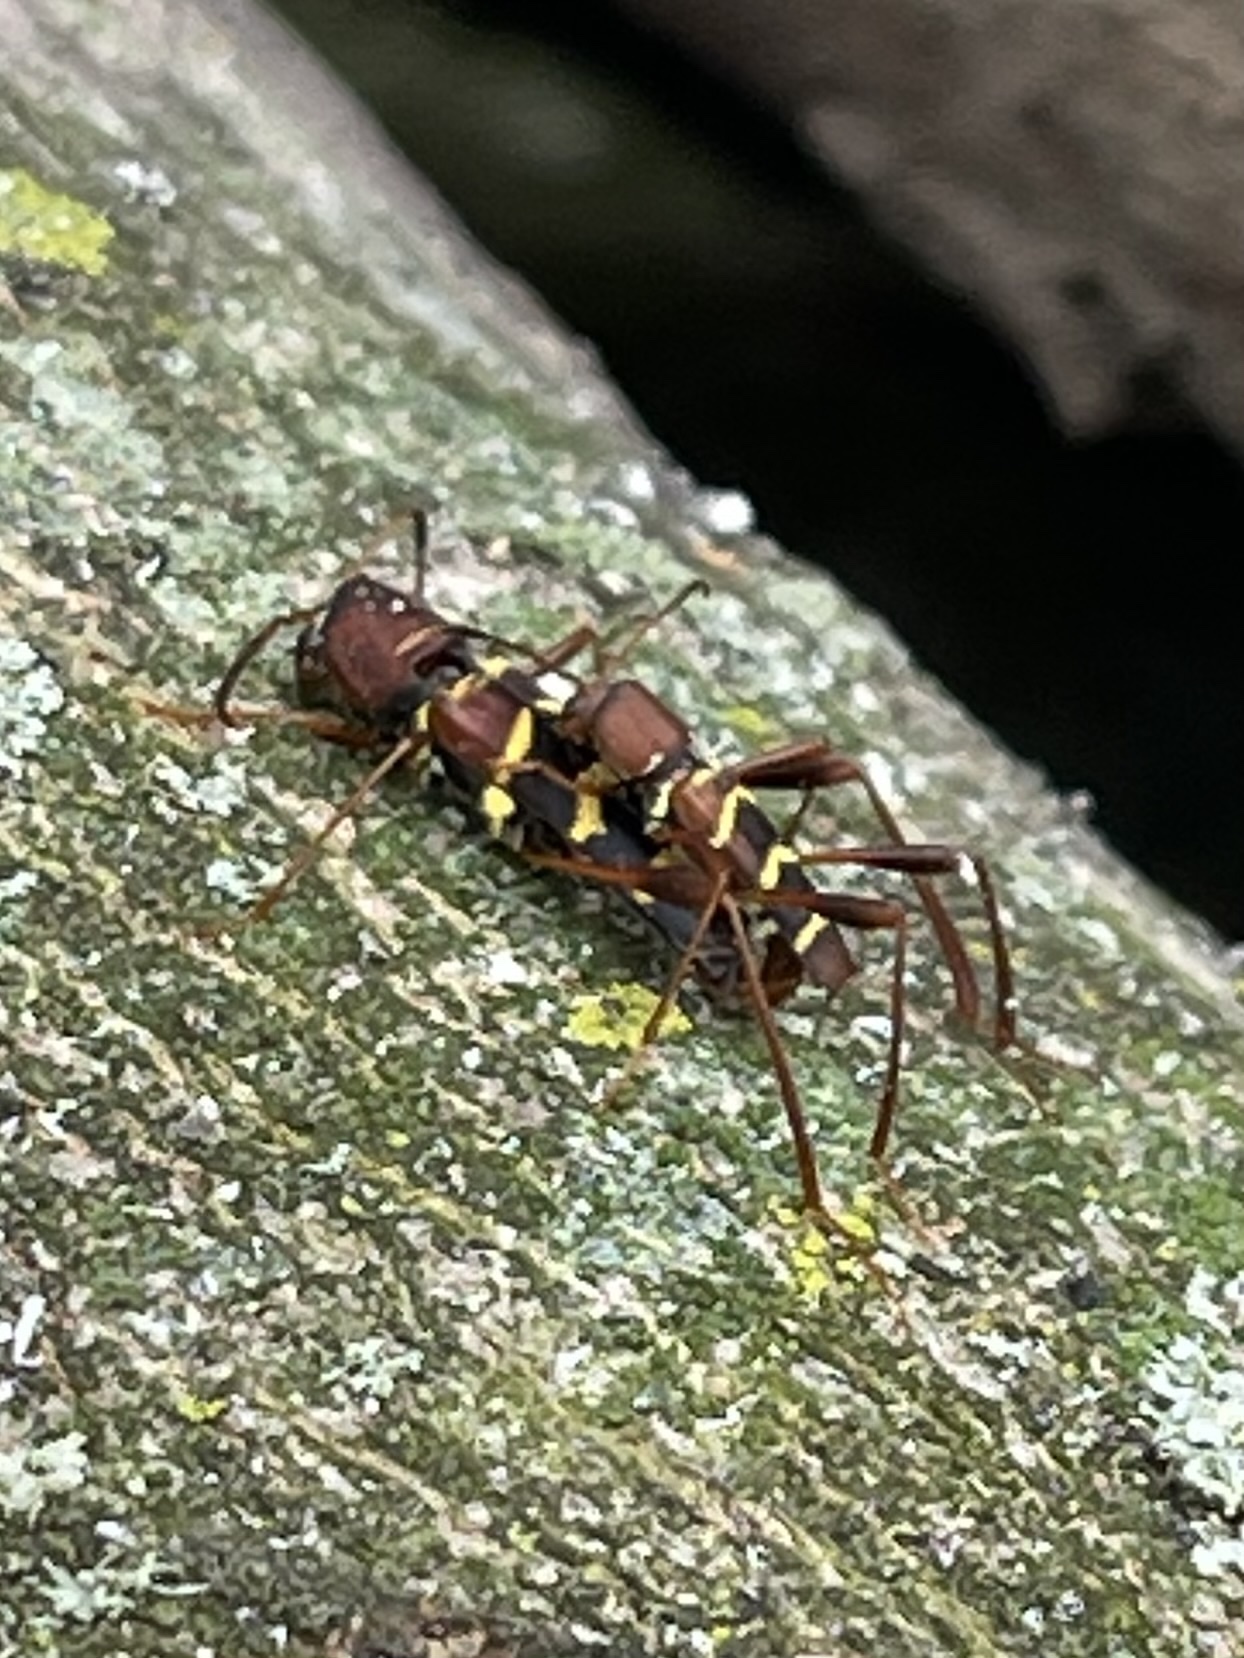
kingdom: Animalia
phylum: Arthropoda
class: Insecta
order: Coleoptera
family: Cerambycidae
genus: Neoclytus
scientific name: Neoclytus acuminatus
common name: Read-headed ash borer
